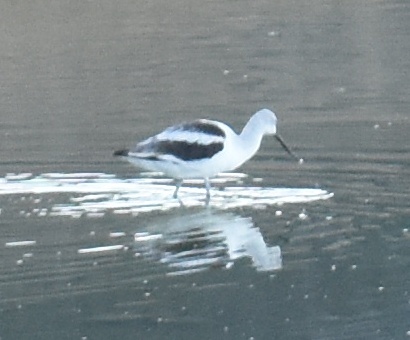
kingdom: Animalia
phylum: Chordata
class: Aves
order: Charadriiformes
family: Recurvirostridae
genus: Recurvirostra
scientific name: Recurvirostra americana
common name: American avocet
